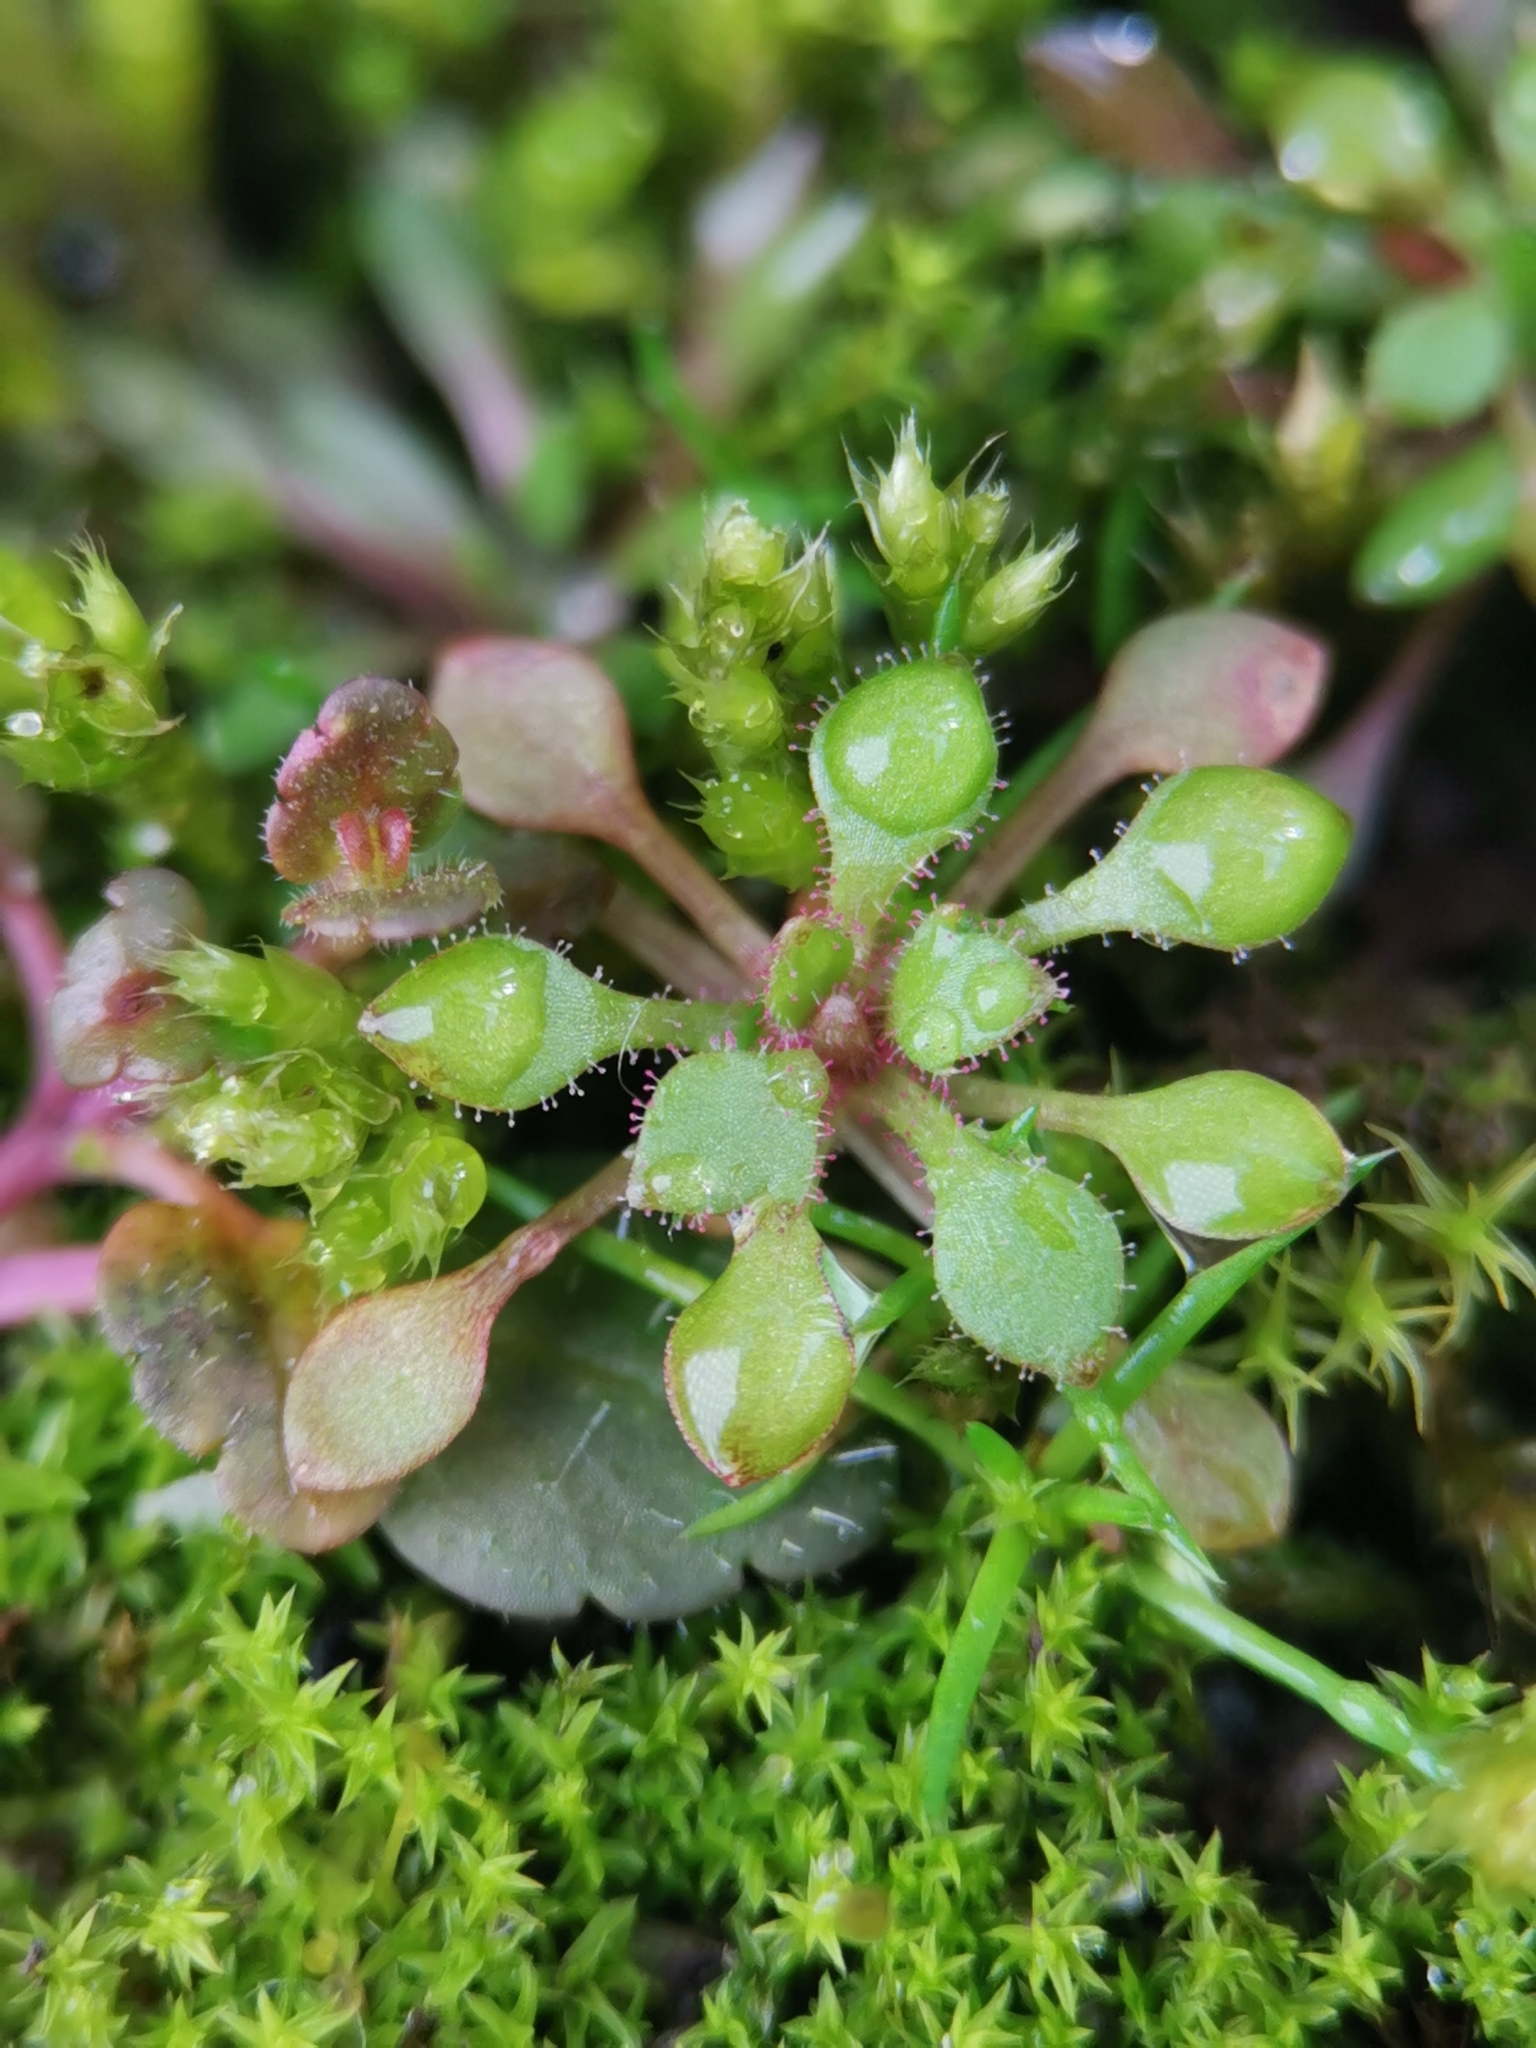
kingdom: Plantae
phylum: Tracheophyta
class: Magnoliopsida
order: Saxifragales
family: Saxifragaceae
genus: Saxifraga
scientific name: Saxifraga tridactylites
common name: Rue-leaved saxifrage
